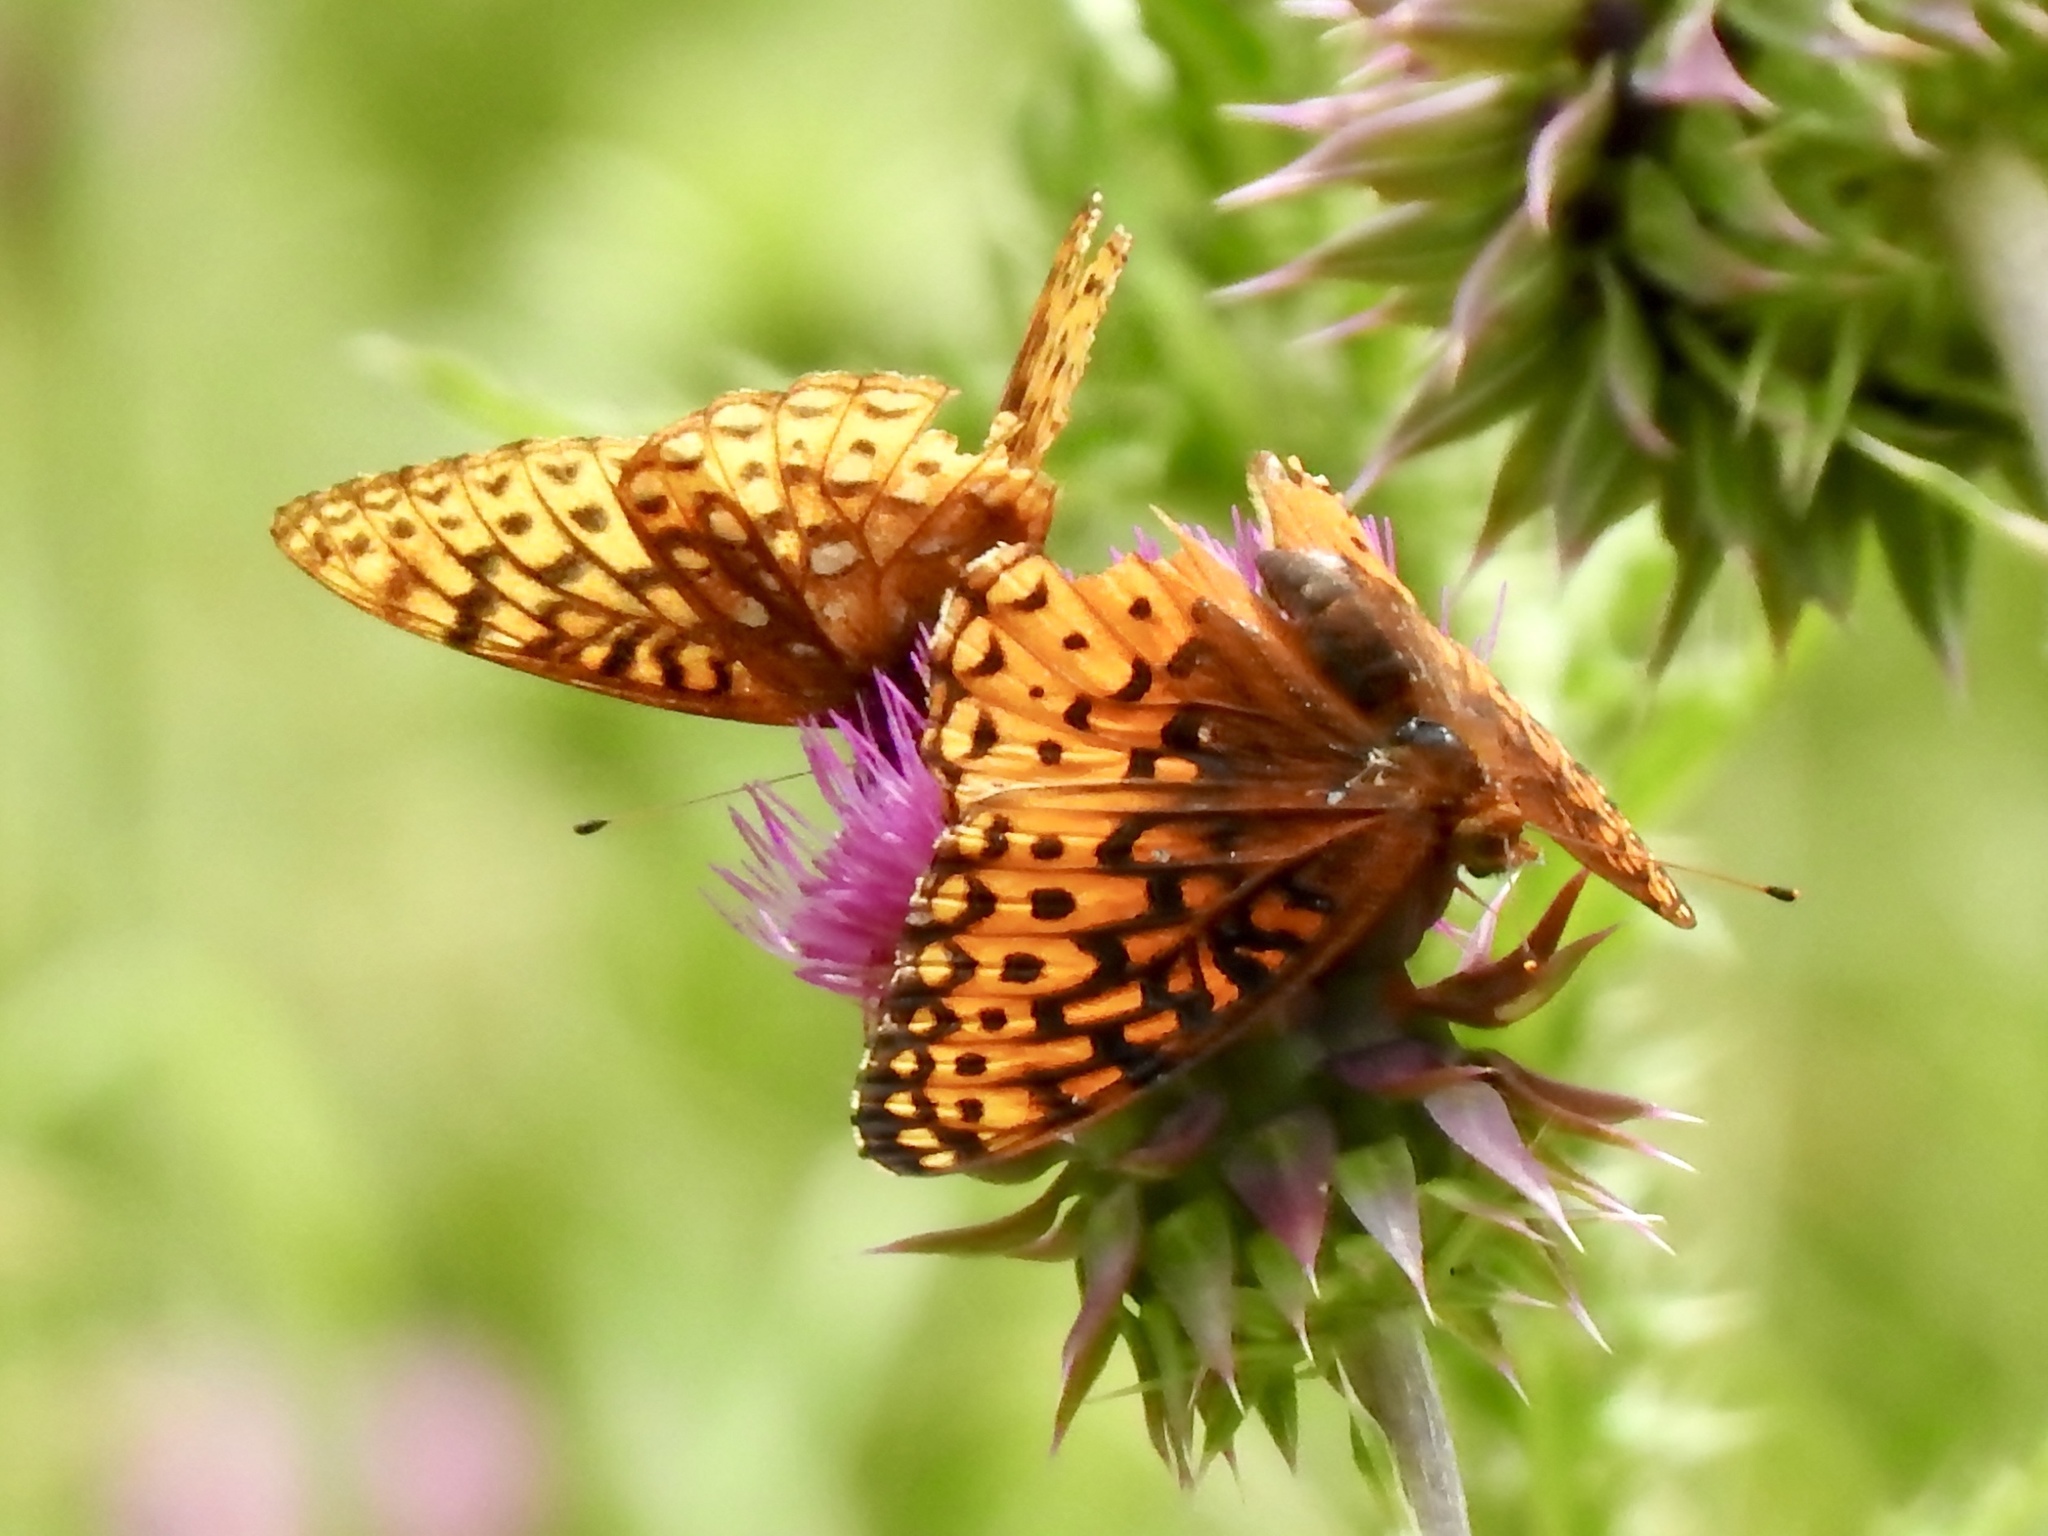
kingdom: Animalia
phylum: Arthropoda
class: Insecta
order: Lepidoptera
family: Nymphalidae
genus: Speyeria
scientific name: Speyeria atlantis
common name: Atlantis fritillary
